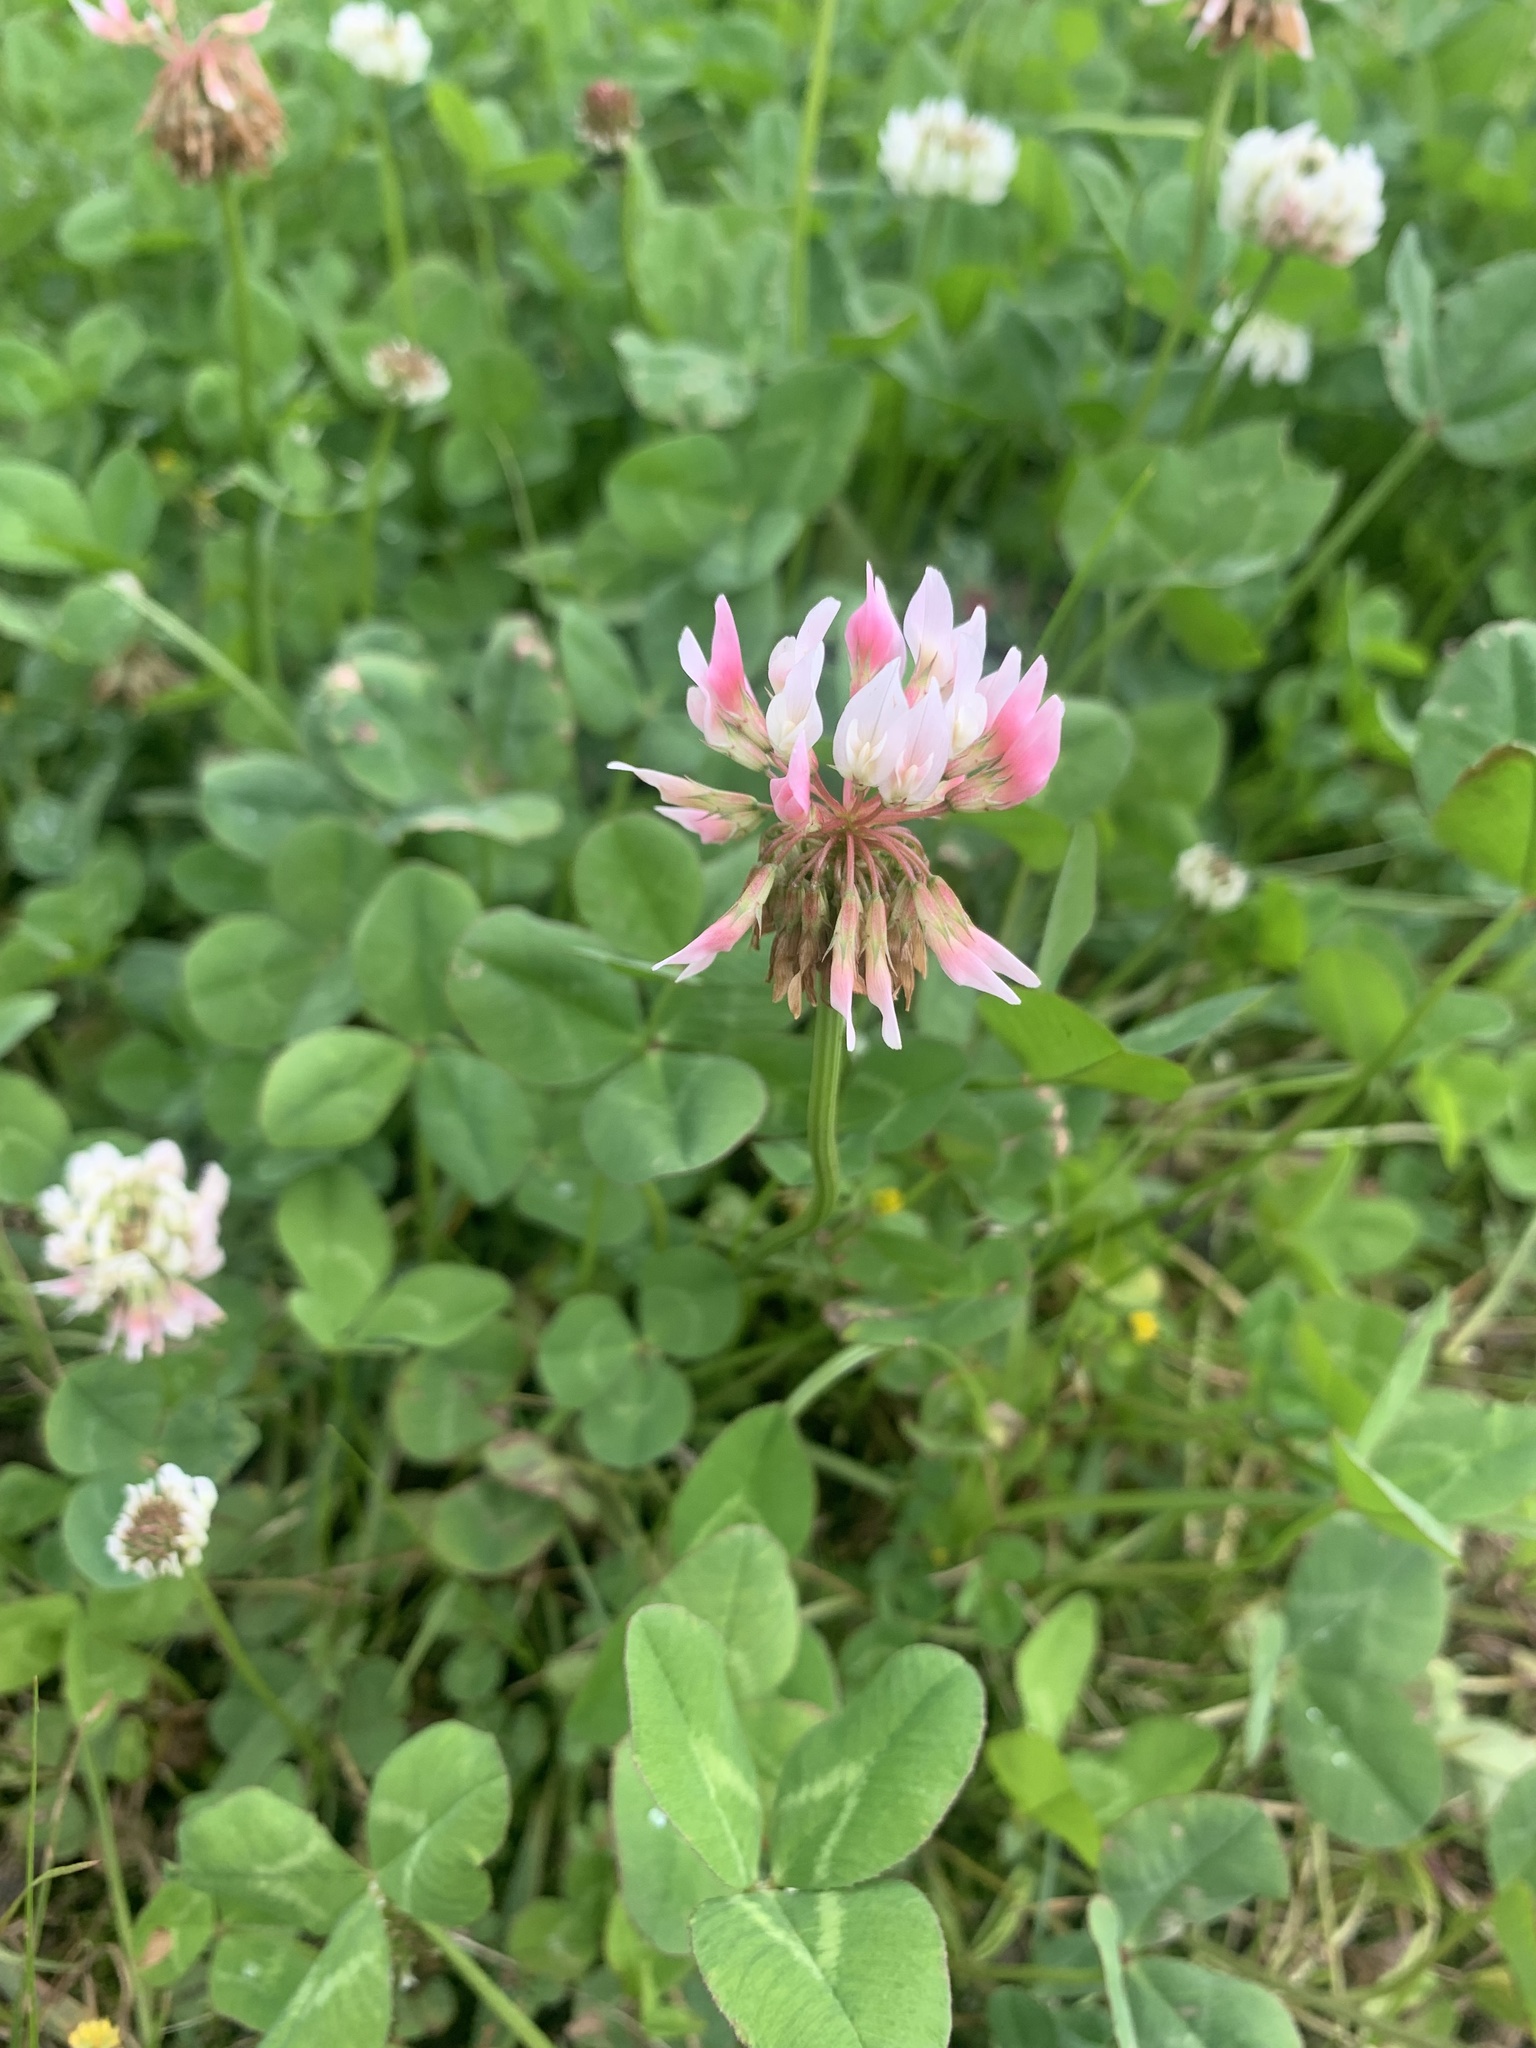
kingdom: Plantae
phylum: Tracheophyta
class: Magnoliopsida
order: Fabales
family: Fabaceae
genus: Trifolium
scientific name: Trifolium repens
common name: White clover
